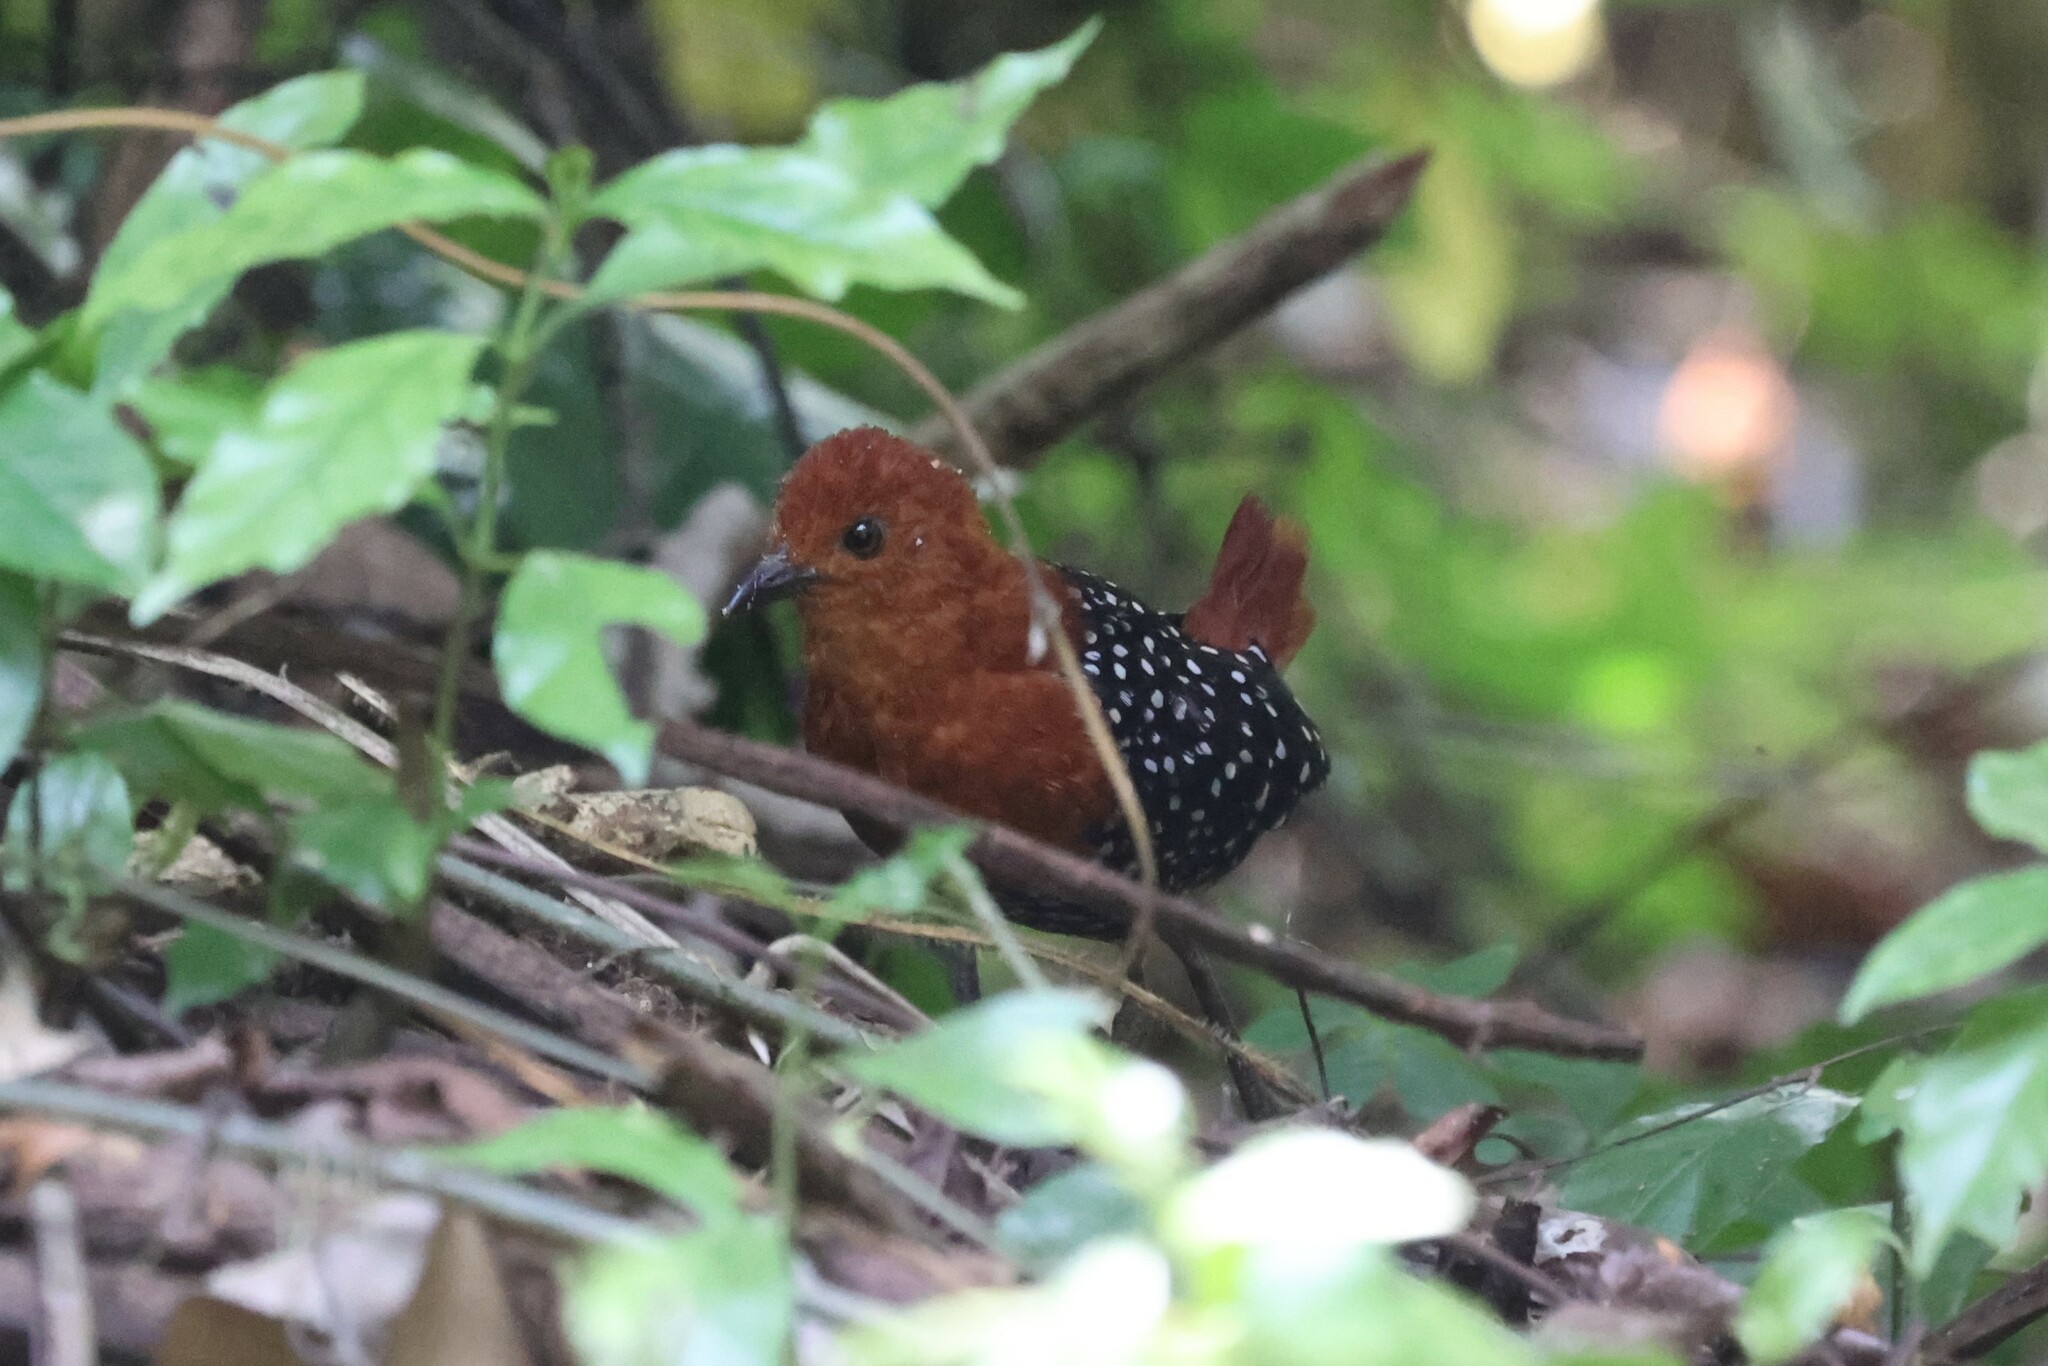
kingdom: Animalia
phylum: Chordata
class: Aves
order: Gruiformes
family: Rallidae
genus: Sarothrura
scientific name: Sarothrura pulchra
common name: White-spotted flufftail
